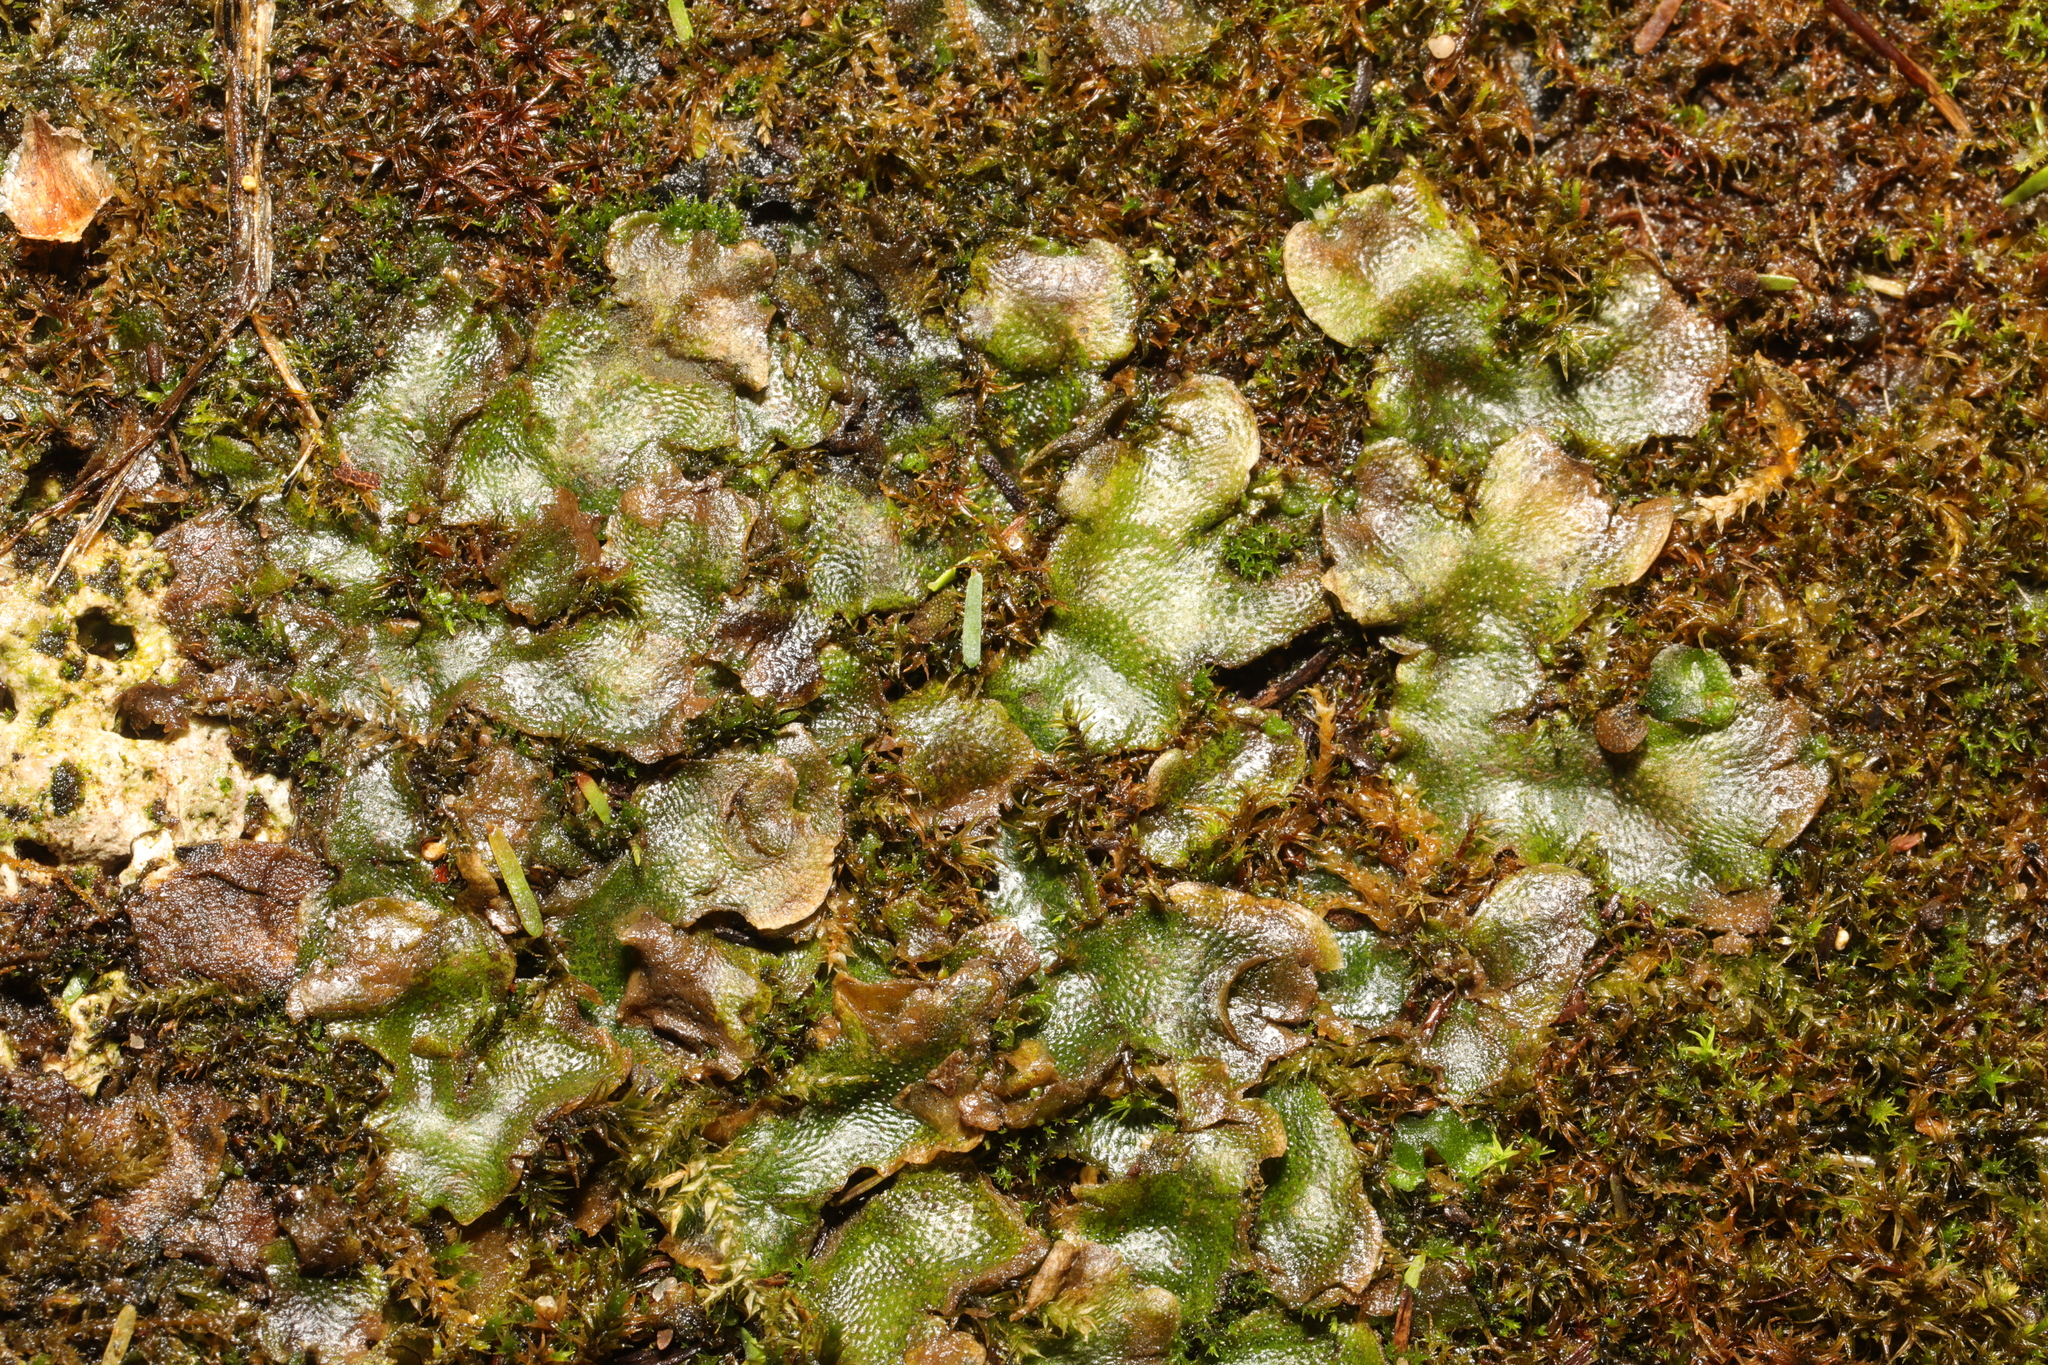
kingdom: Plantae
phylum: Marchantiophyta
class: Marchantiopsida
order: Lunulariales
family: Lunulariaceae
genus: Lunularia
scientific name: Lunularia cruciata
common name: Crescent-cup liverwort
